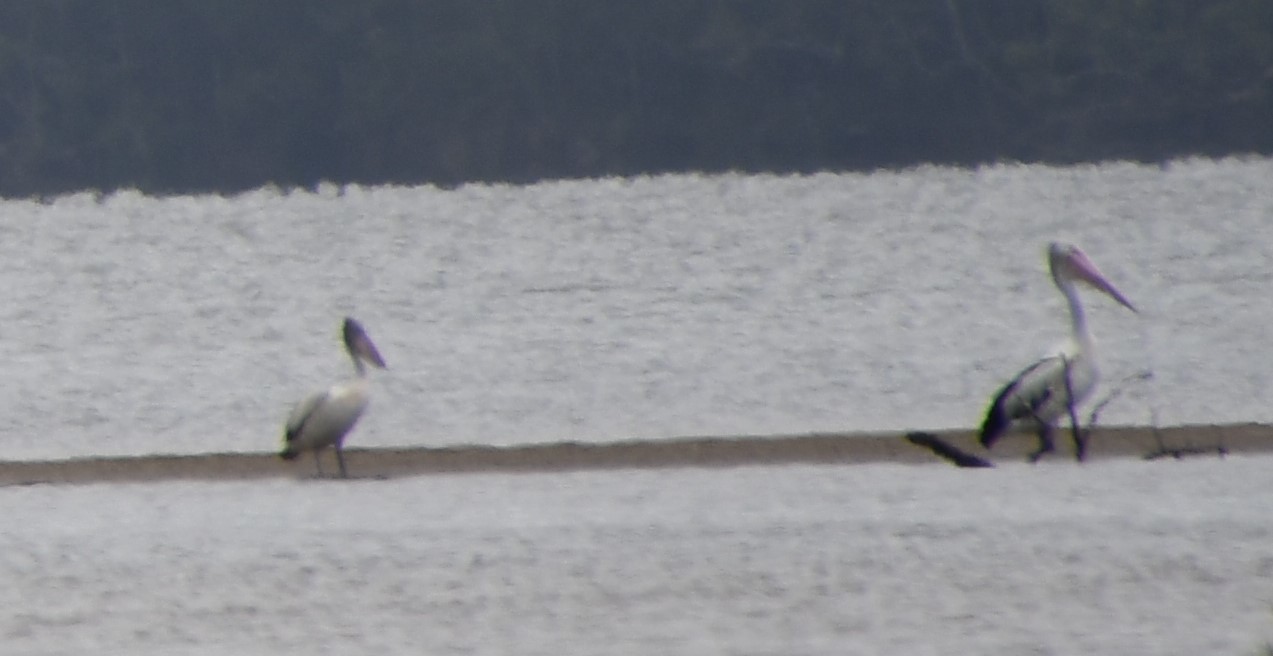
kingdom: Animalia
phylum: Chordata
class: Aves
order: Pelecaniformes
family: Pelecanidae
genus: Pelecanus
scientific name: Pelecanus conspicillatus
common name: Australian pelican
